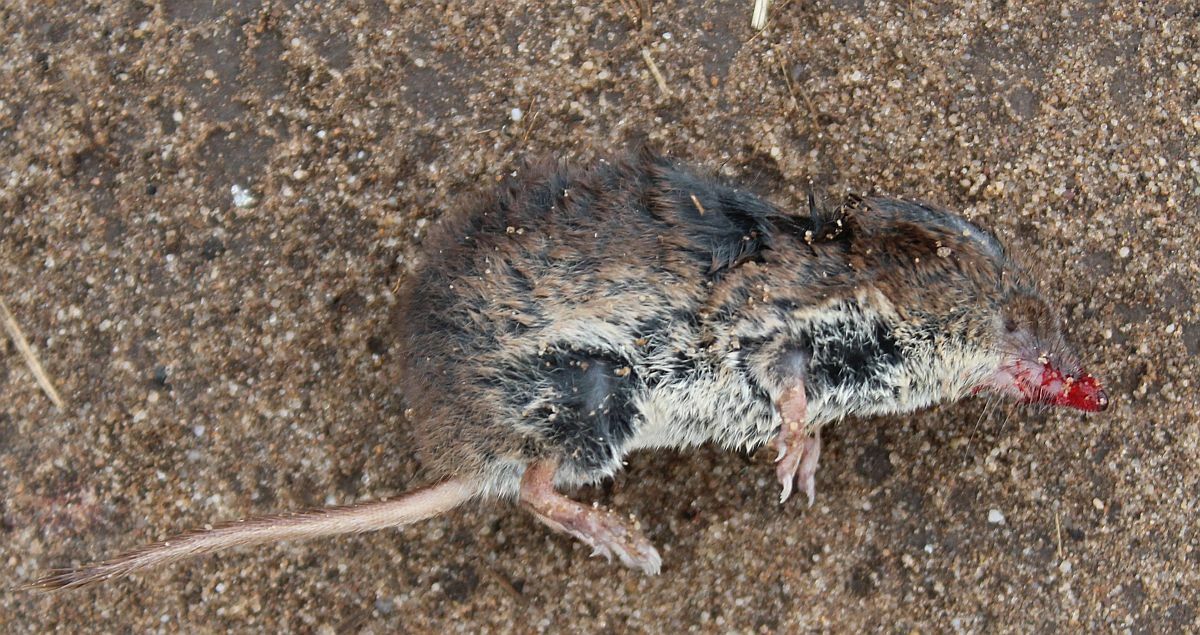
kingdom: Animalia
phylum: Chordata
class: Mammalia
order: Soricomorpha
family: Soricidae
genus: Sorex
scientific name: Sorex araneus
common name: Common shrew
